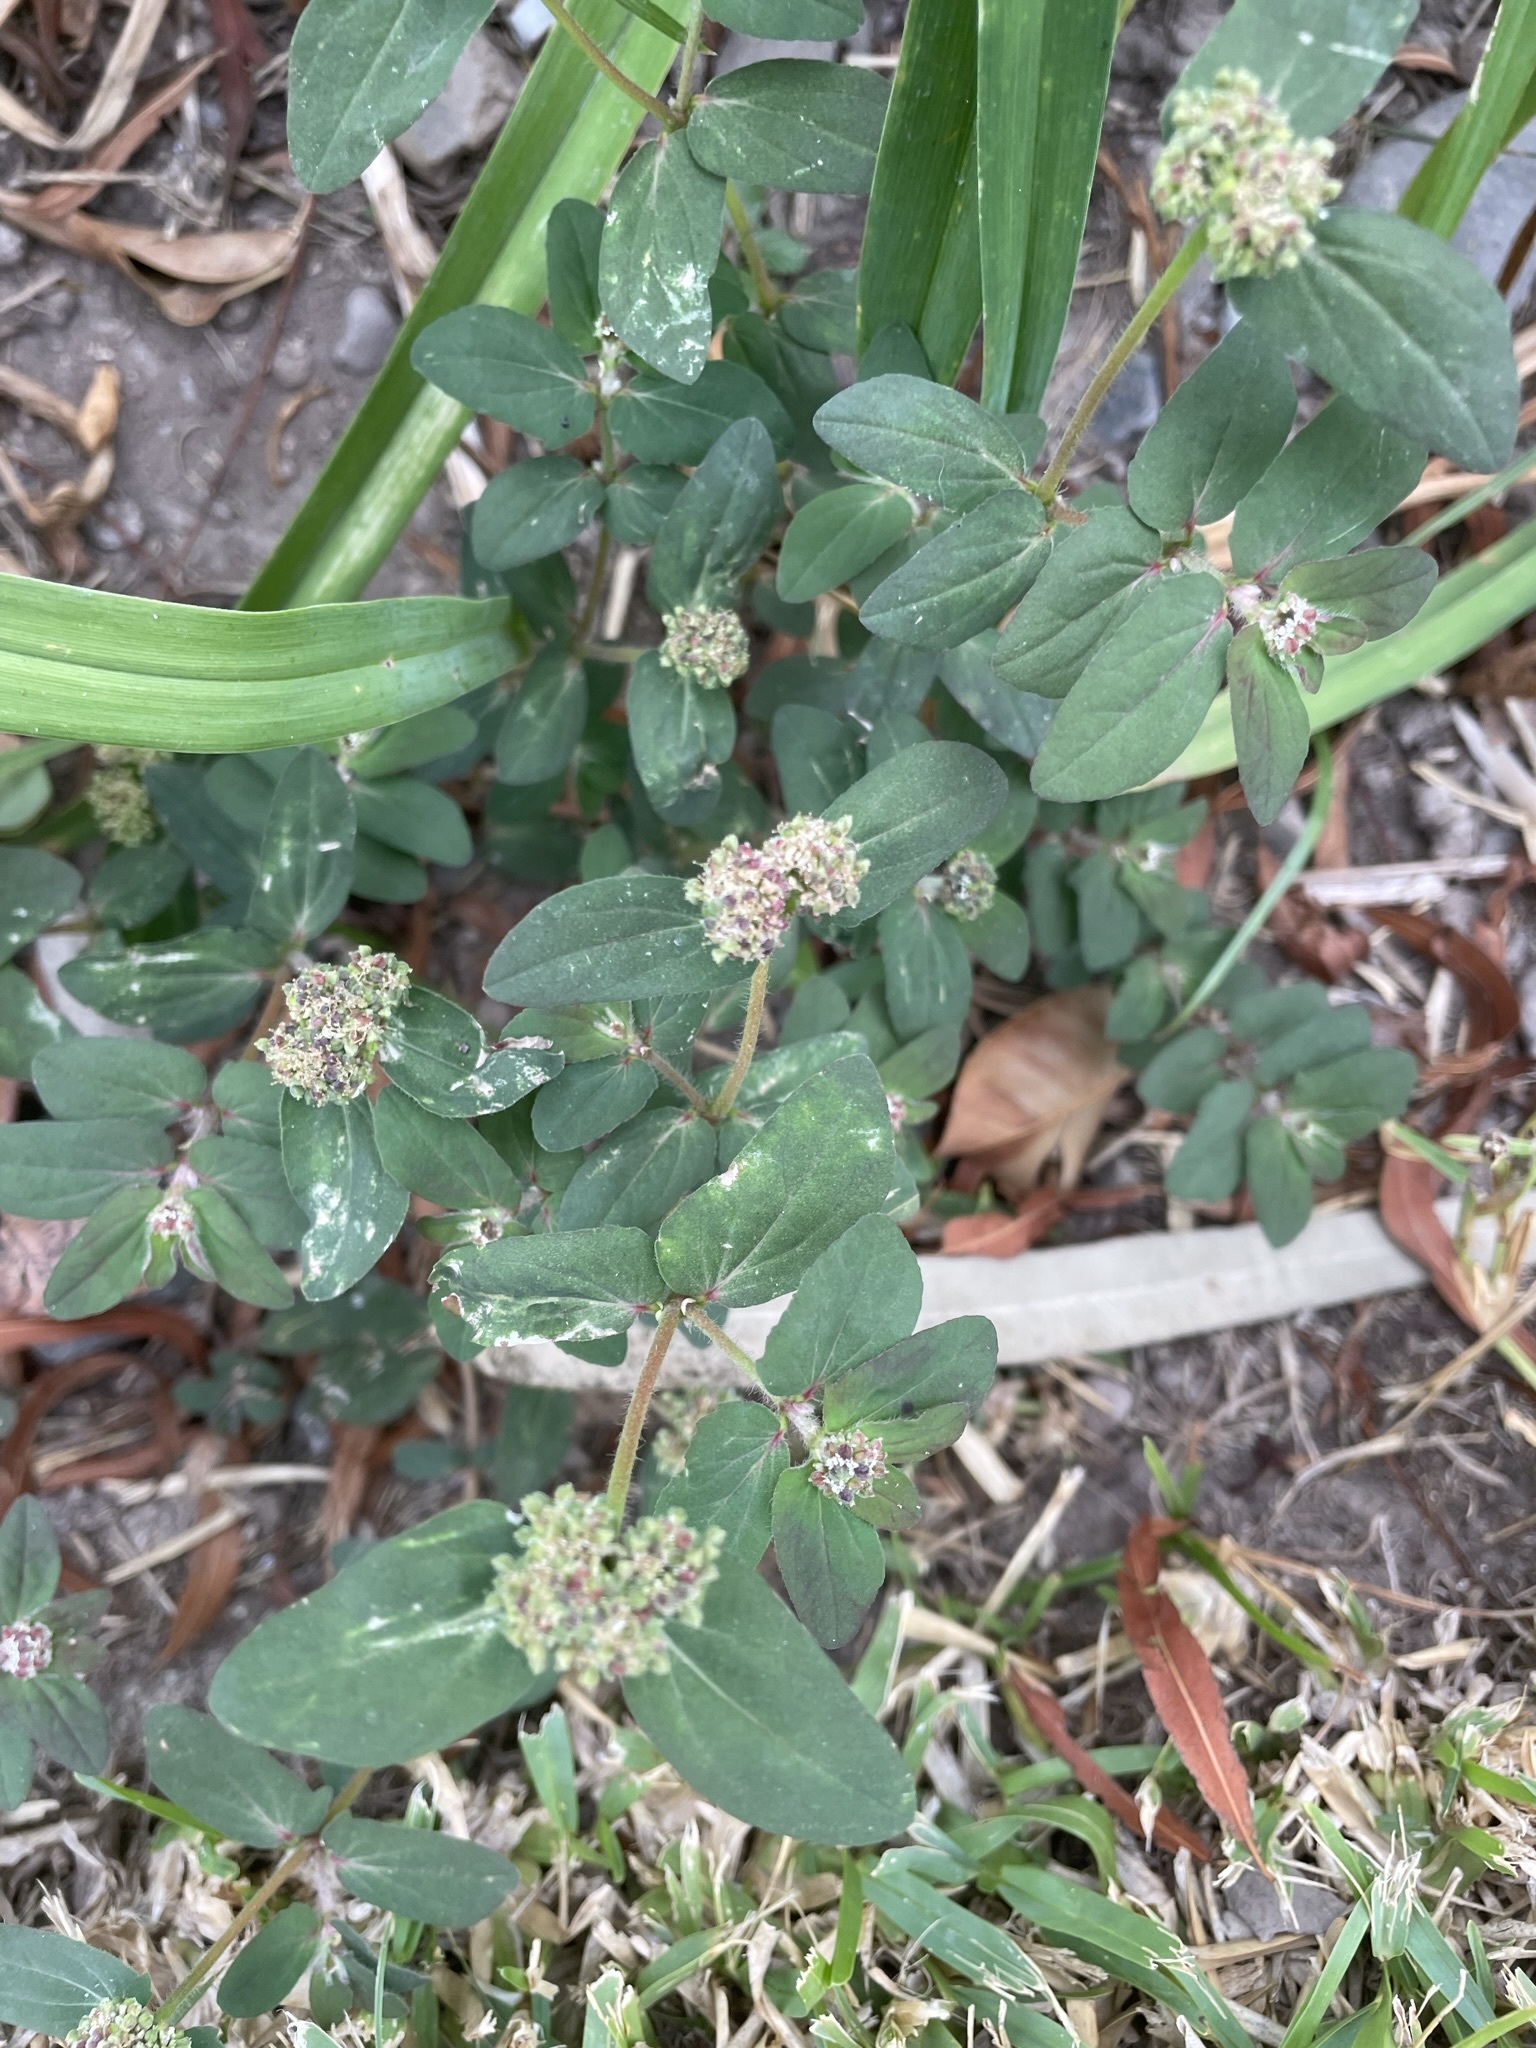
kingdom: Plantae
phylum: Tracheophyta
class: Magnoliopsida
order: Malpighiales
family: Euphorbiaceae
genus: Euphorbia
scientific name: Euphorbia ophthalmica
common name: Florida hammock sandmat
